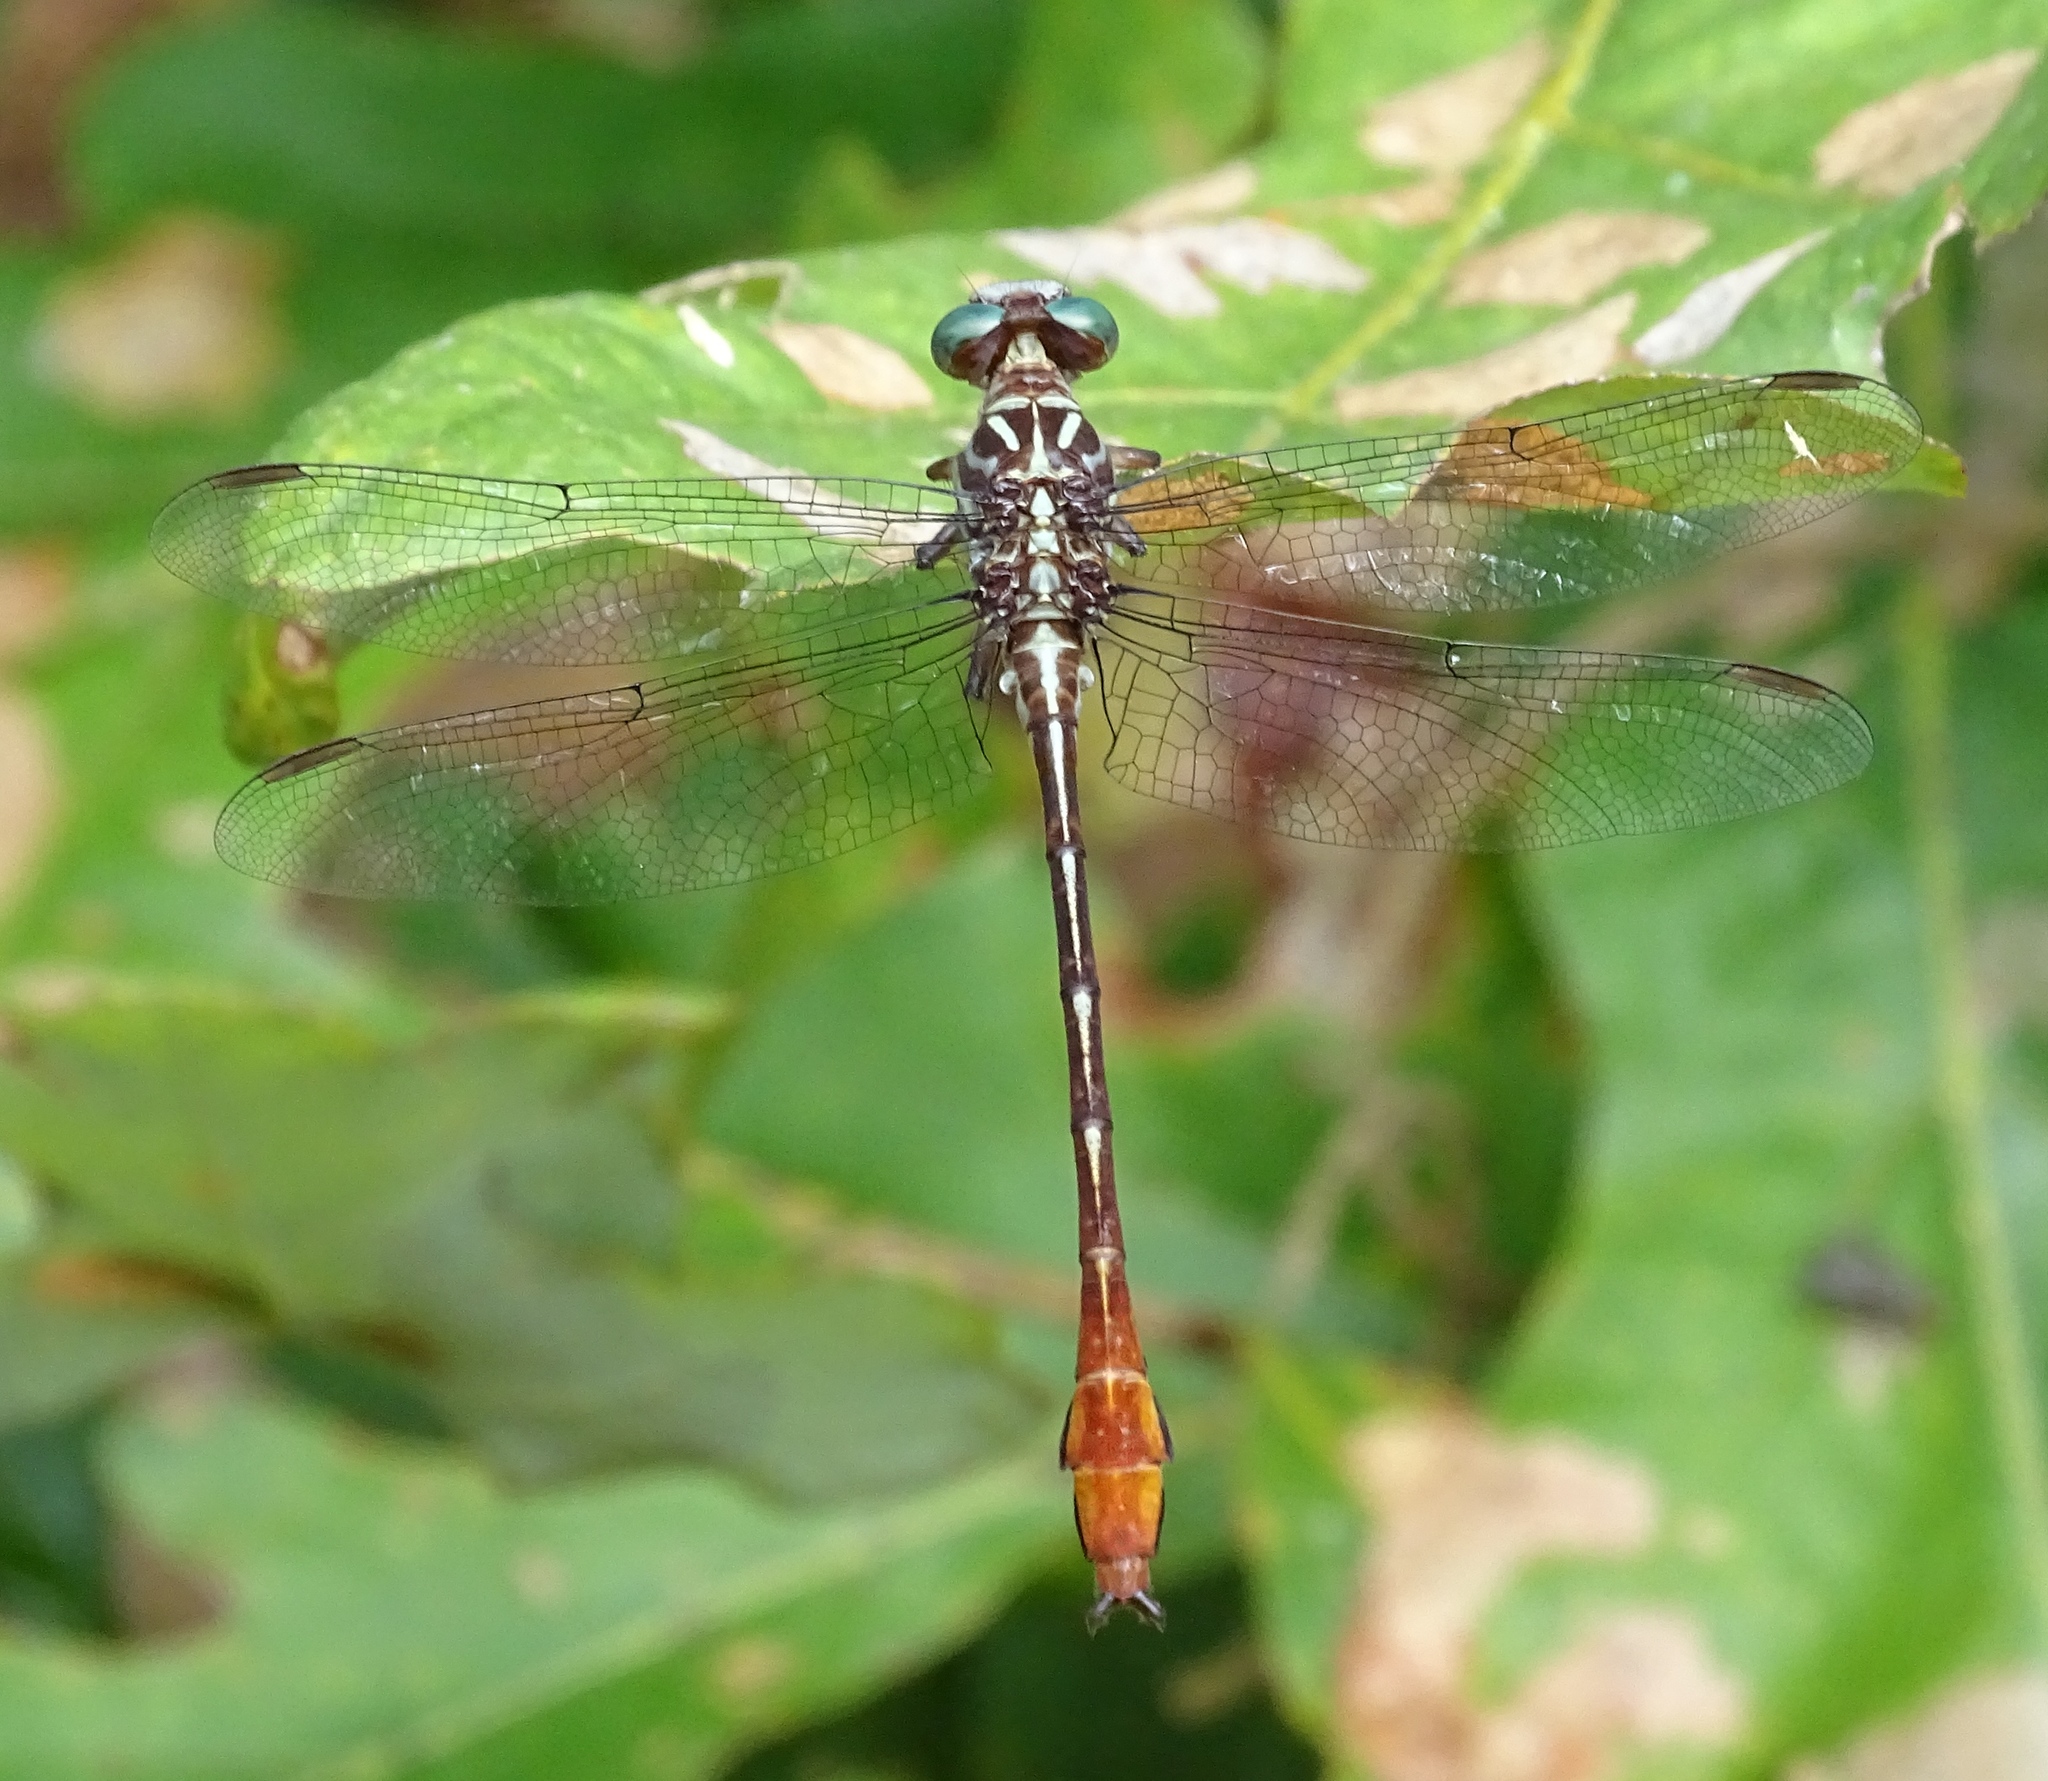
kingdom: Animalia
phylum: Arthropoda
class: Insecta
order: Odonata
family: Gomphidae
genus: Stylurus
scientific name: Stylurus plagiatus
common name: Russet-tipped clubtail
